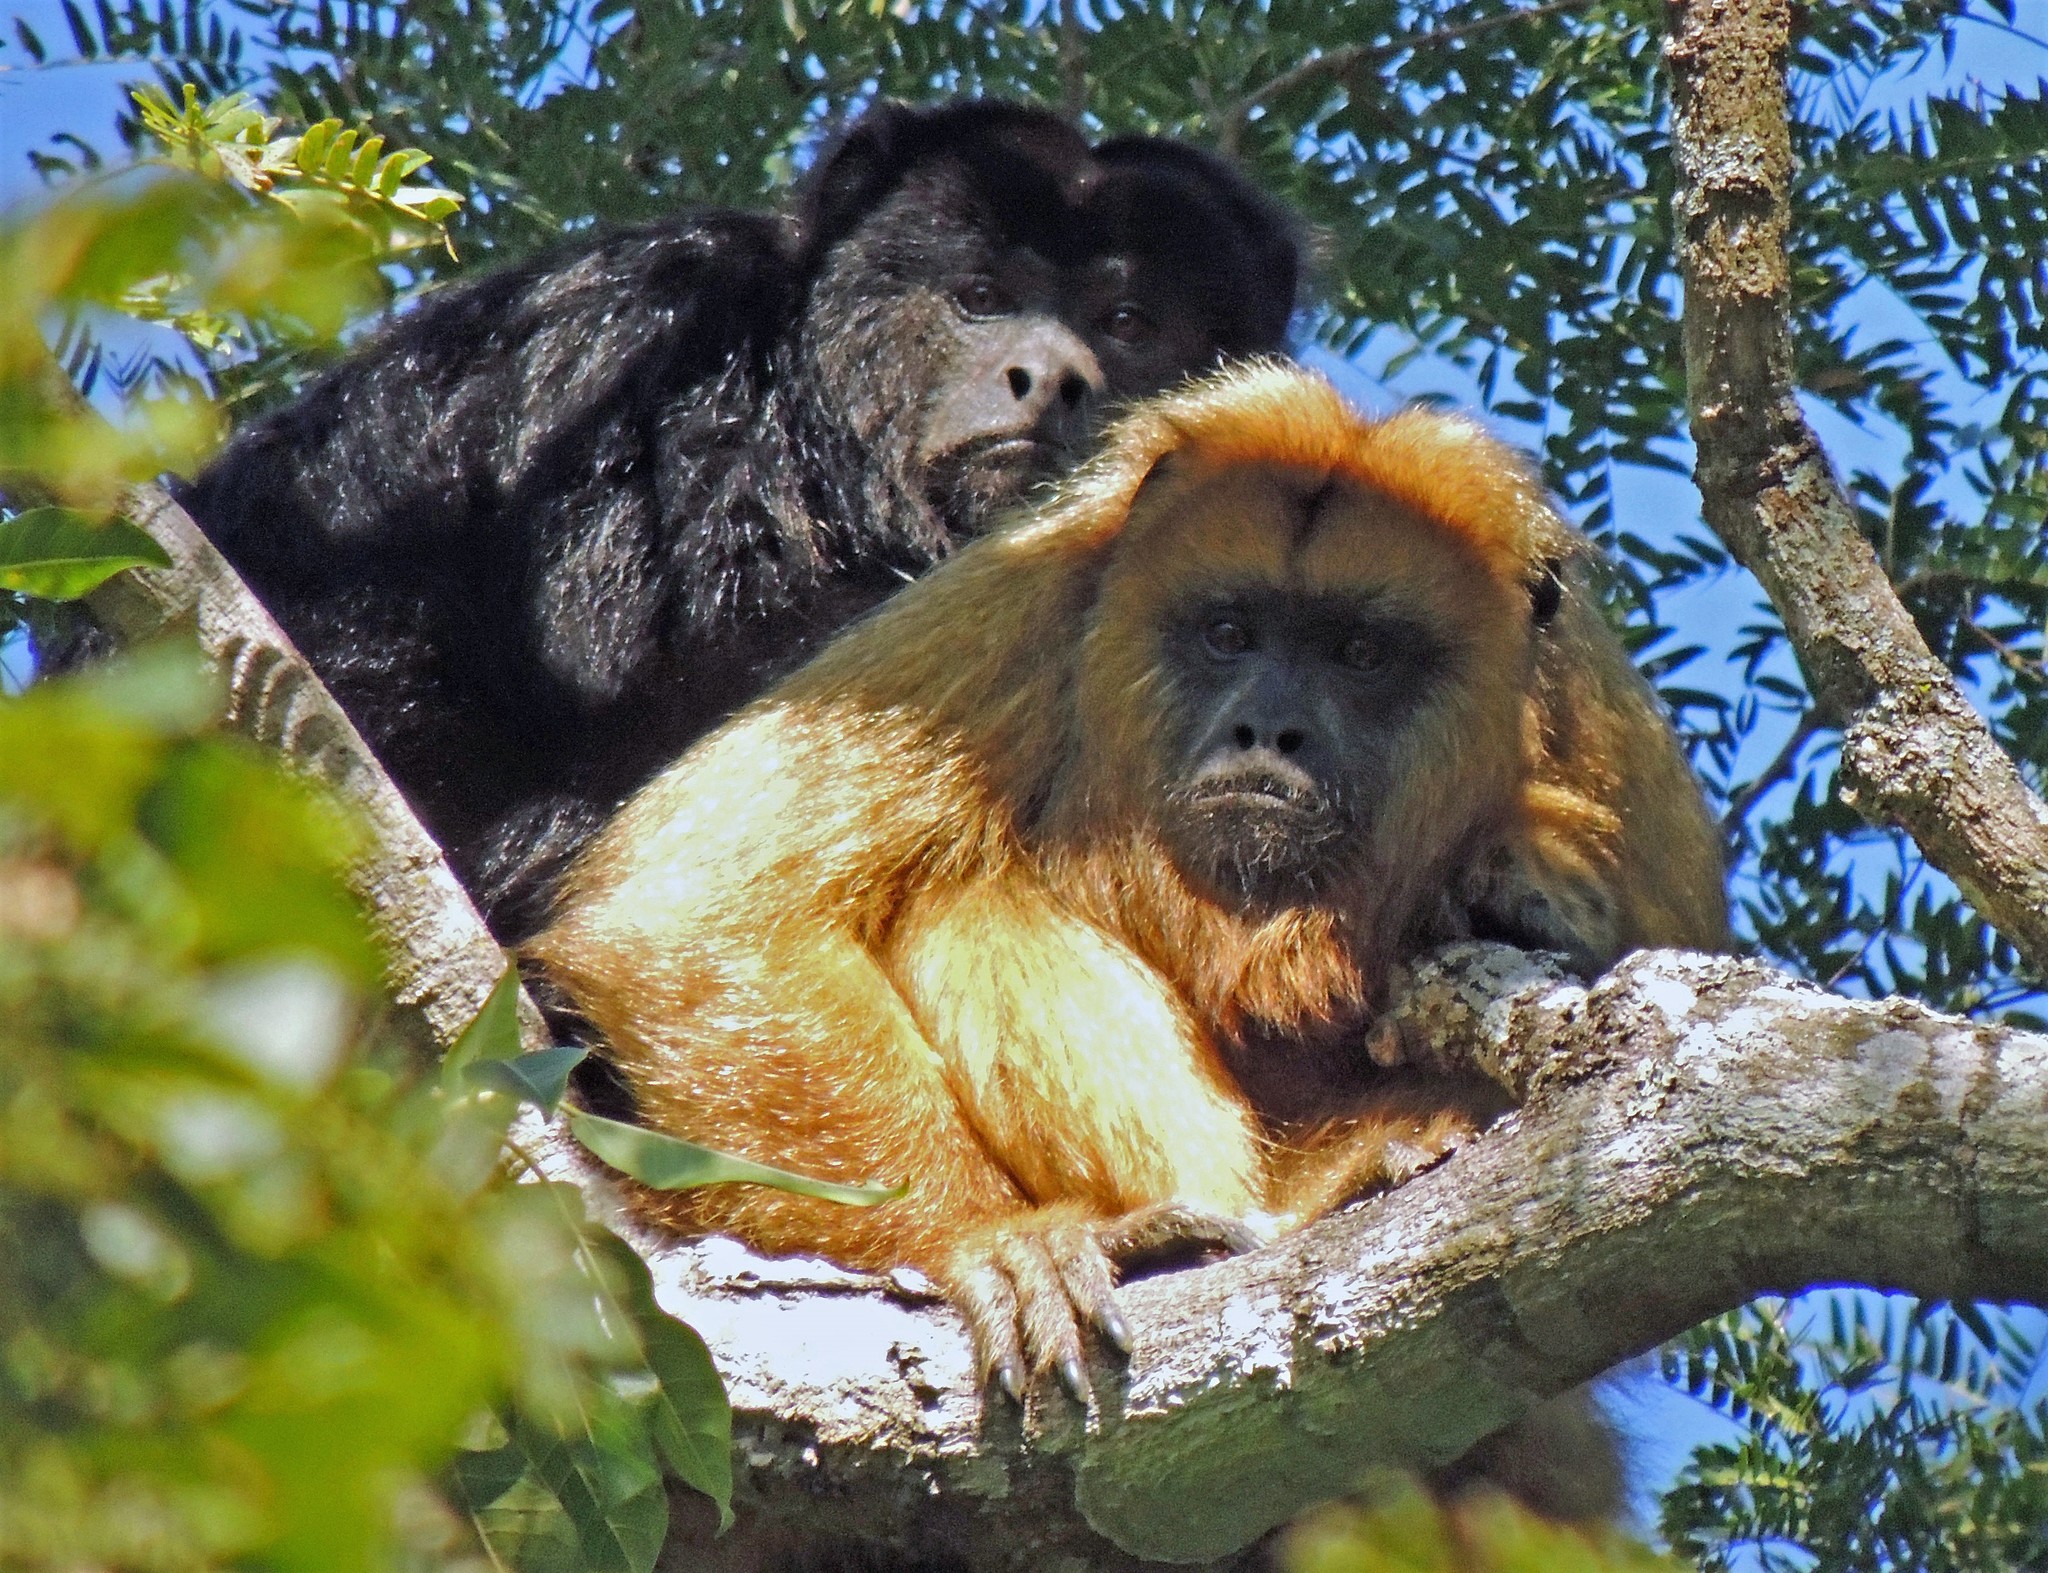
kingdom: Animalia
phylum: Chordata
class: Mammalia
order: Primates
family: Atelidae
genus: Alouatta
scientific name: Alouatta caraya
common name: Black howler
